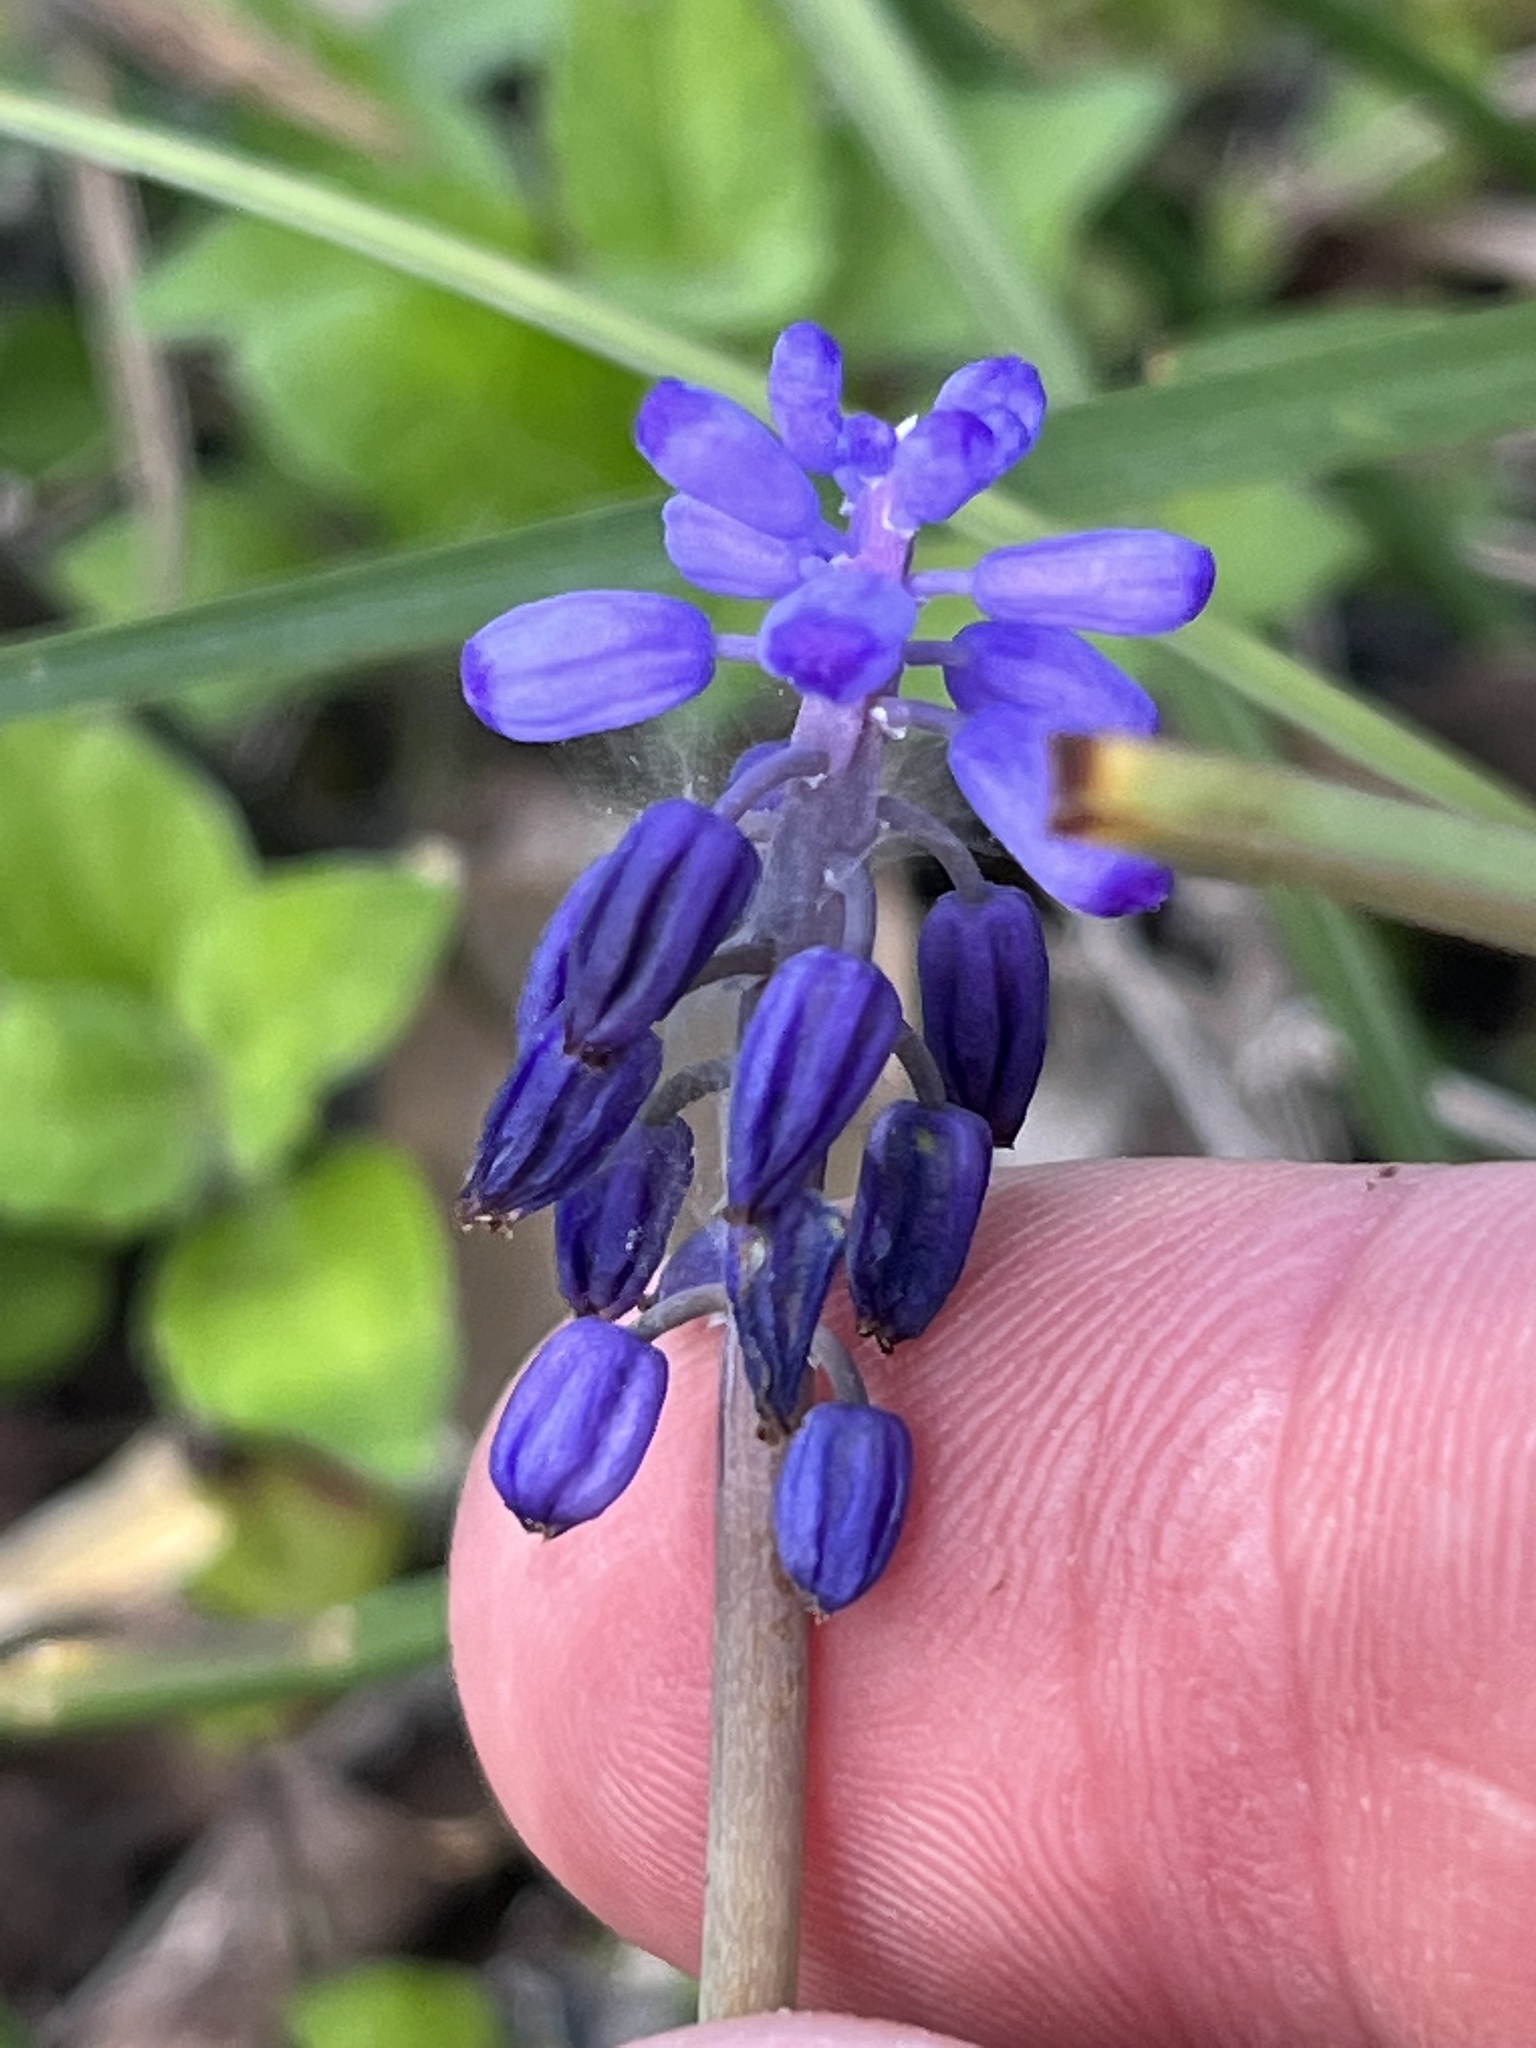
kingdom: Plantae
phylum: Tracheophyta
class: Liliopsida
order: Asparagales
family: Asparagaceae
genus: Muscari
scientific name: Muscari neglectum
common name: Grape-hyacinth
